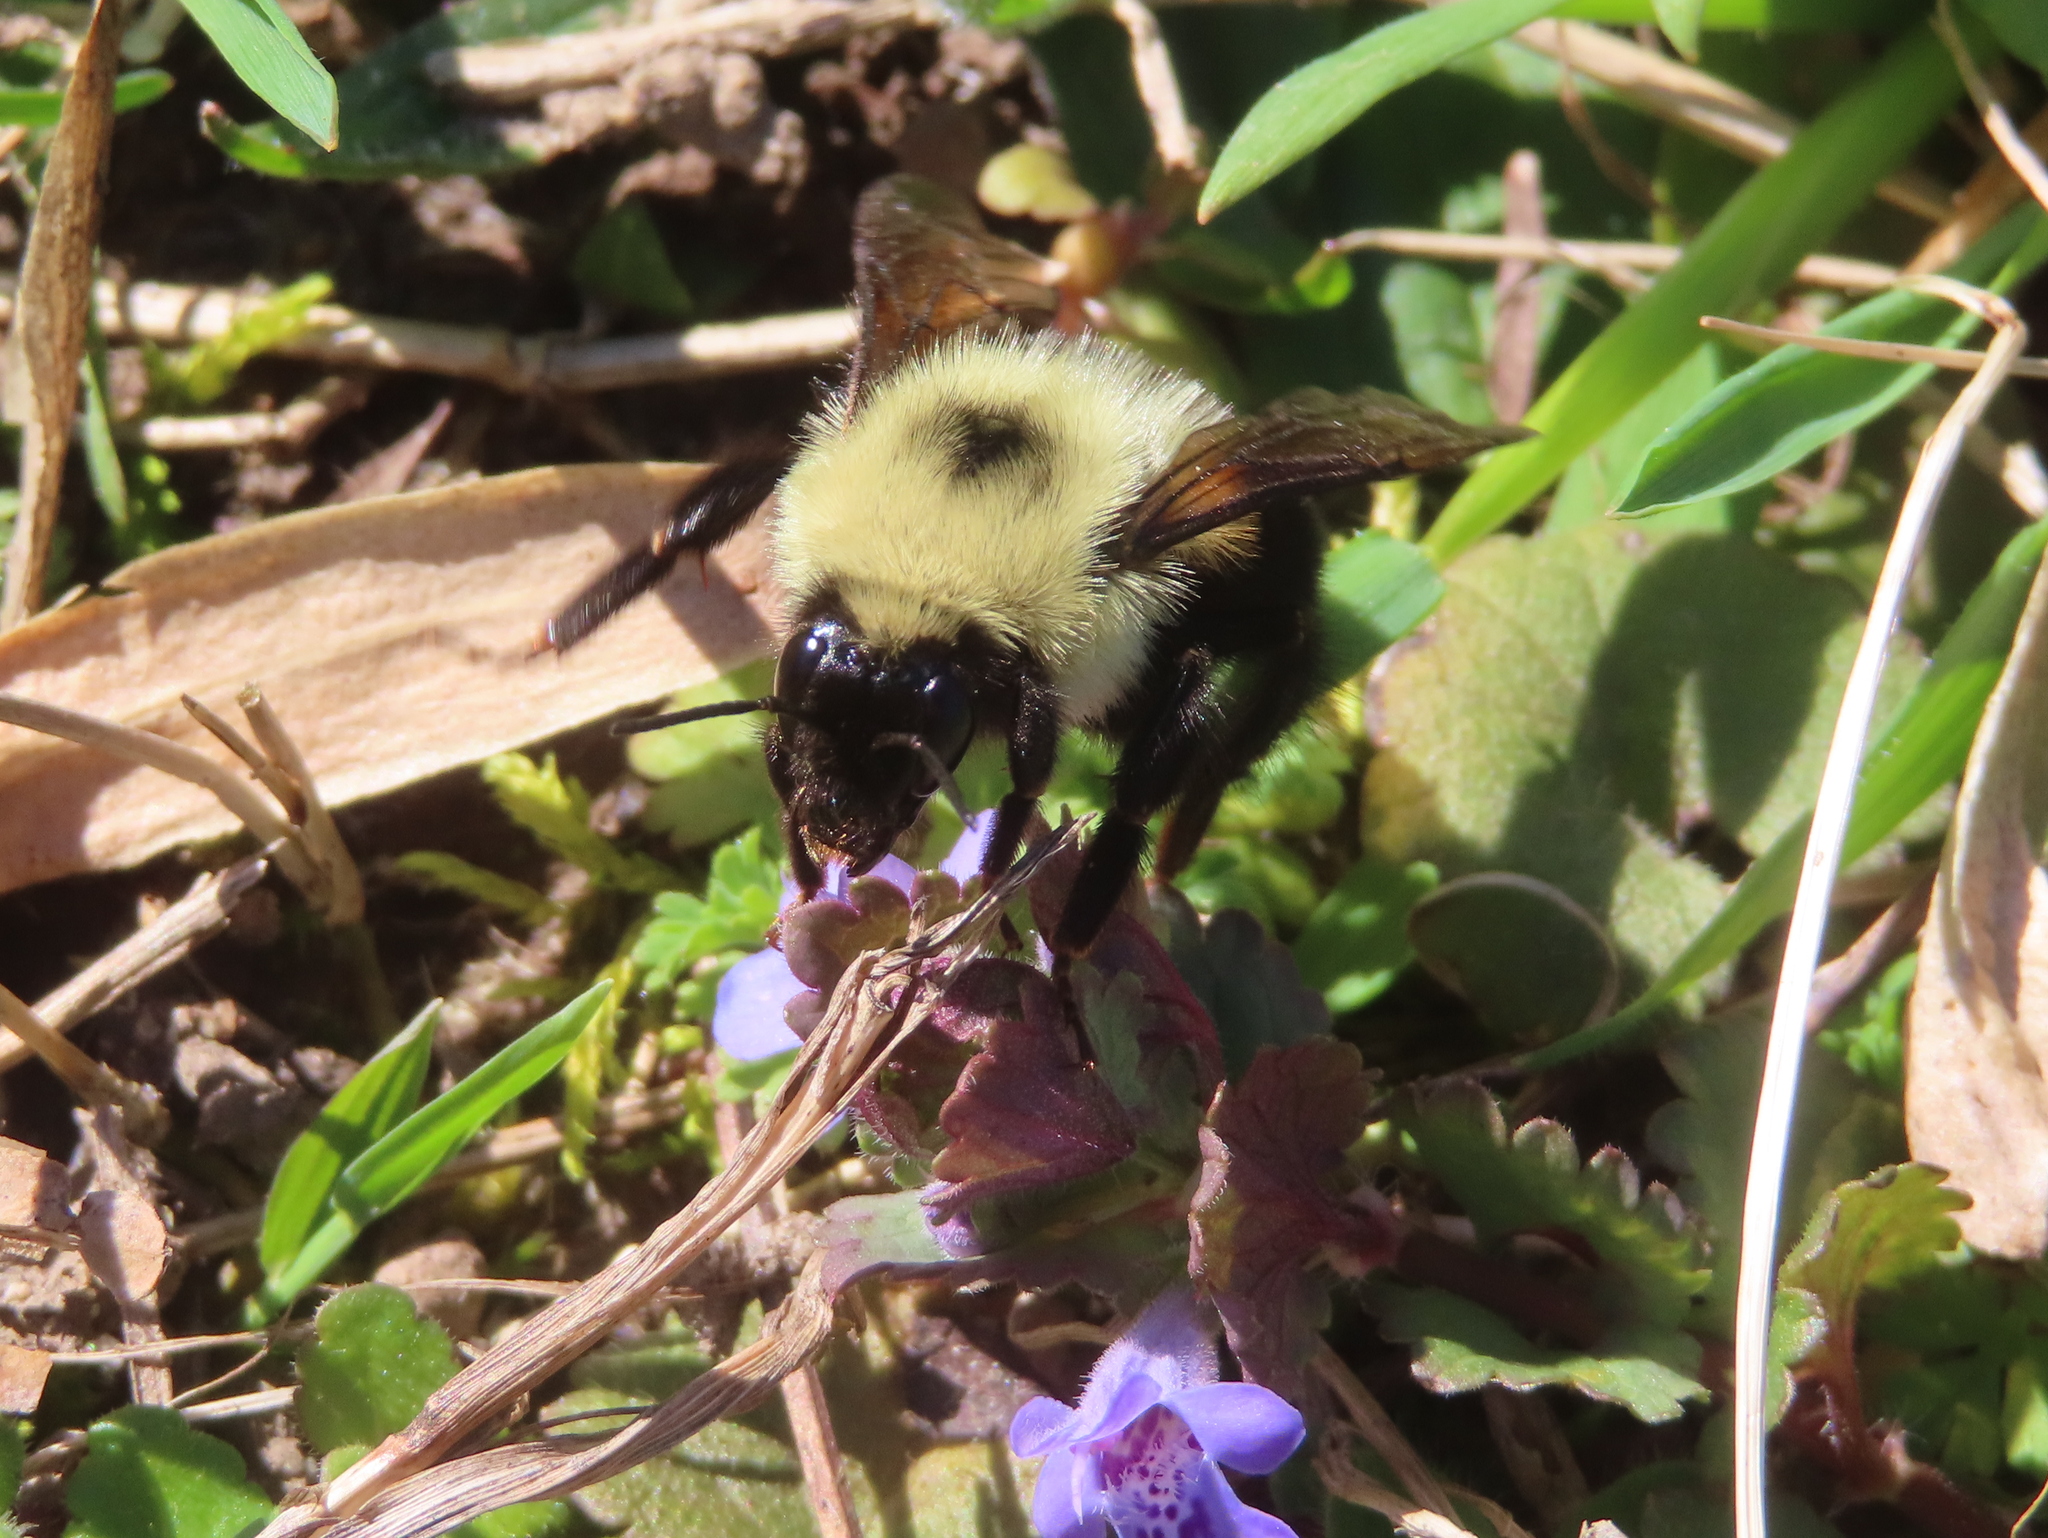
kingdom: Animalia
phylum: Arthropoda
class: Insecta
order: Hymenoptera
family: Apidae
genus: Bombus
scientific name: Bombus bimaculatus
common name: Two-spotted bumble bee
